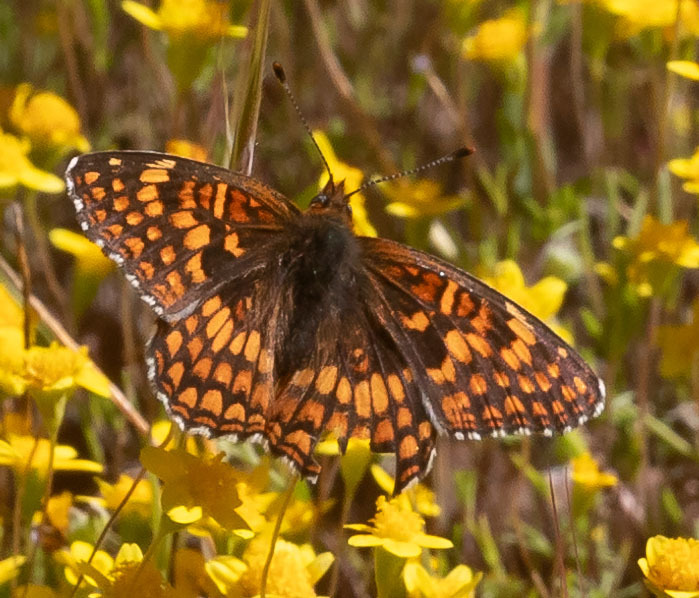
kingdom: Animalia
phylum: Arthropoda
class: Insecta
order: Lepidoptera
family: Nymphalidae
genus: Chlosyne
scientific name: Chlosyne gabbii
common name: Gabb's checkerspot
